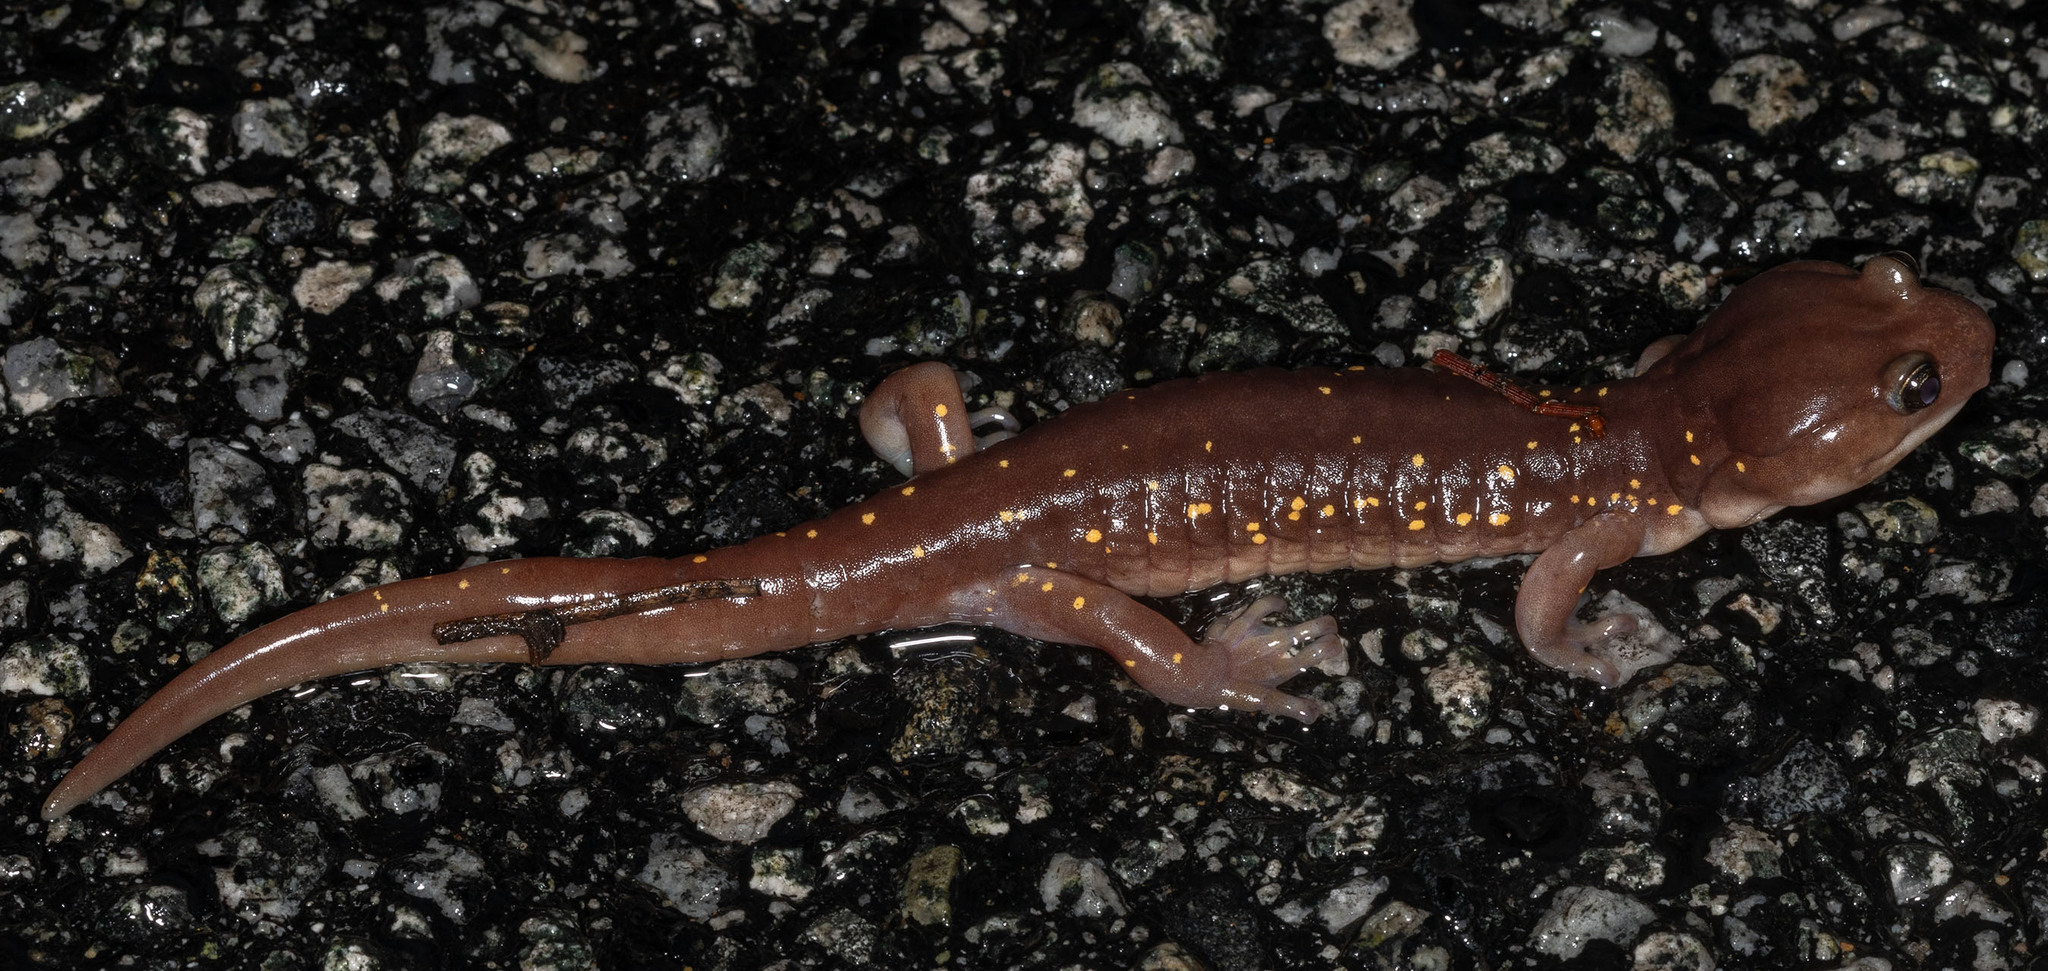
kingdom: Animalia
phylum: Chordata
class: Amphibia
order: Caudata
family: Plethodontidae
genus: Aneides
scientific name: Aneides lugubris
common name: Arboreal salamander
